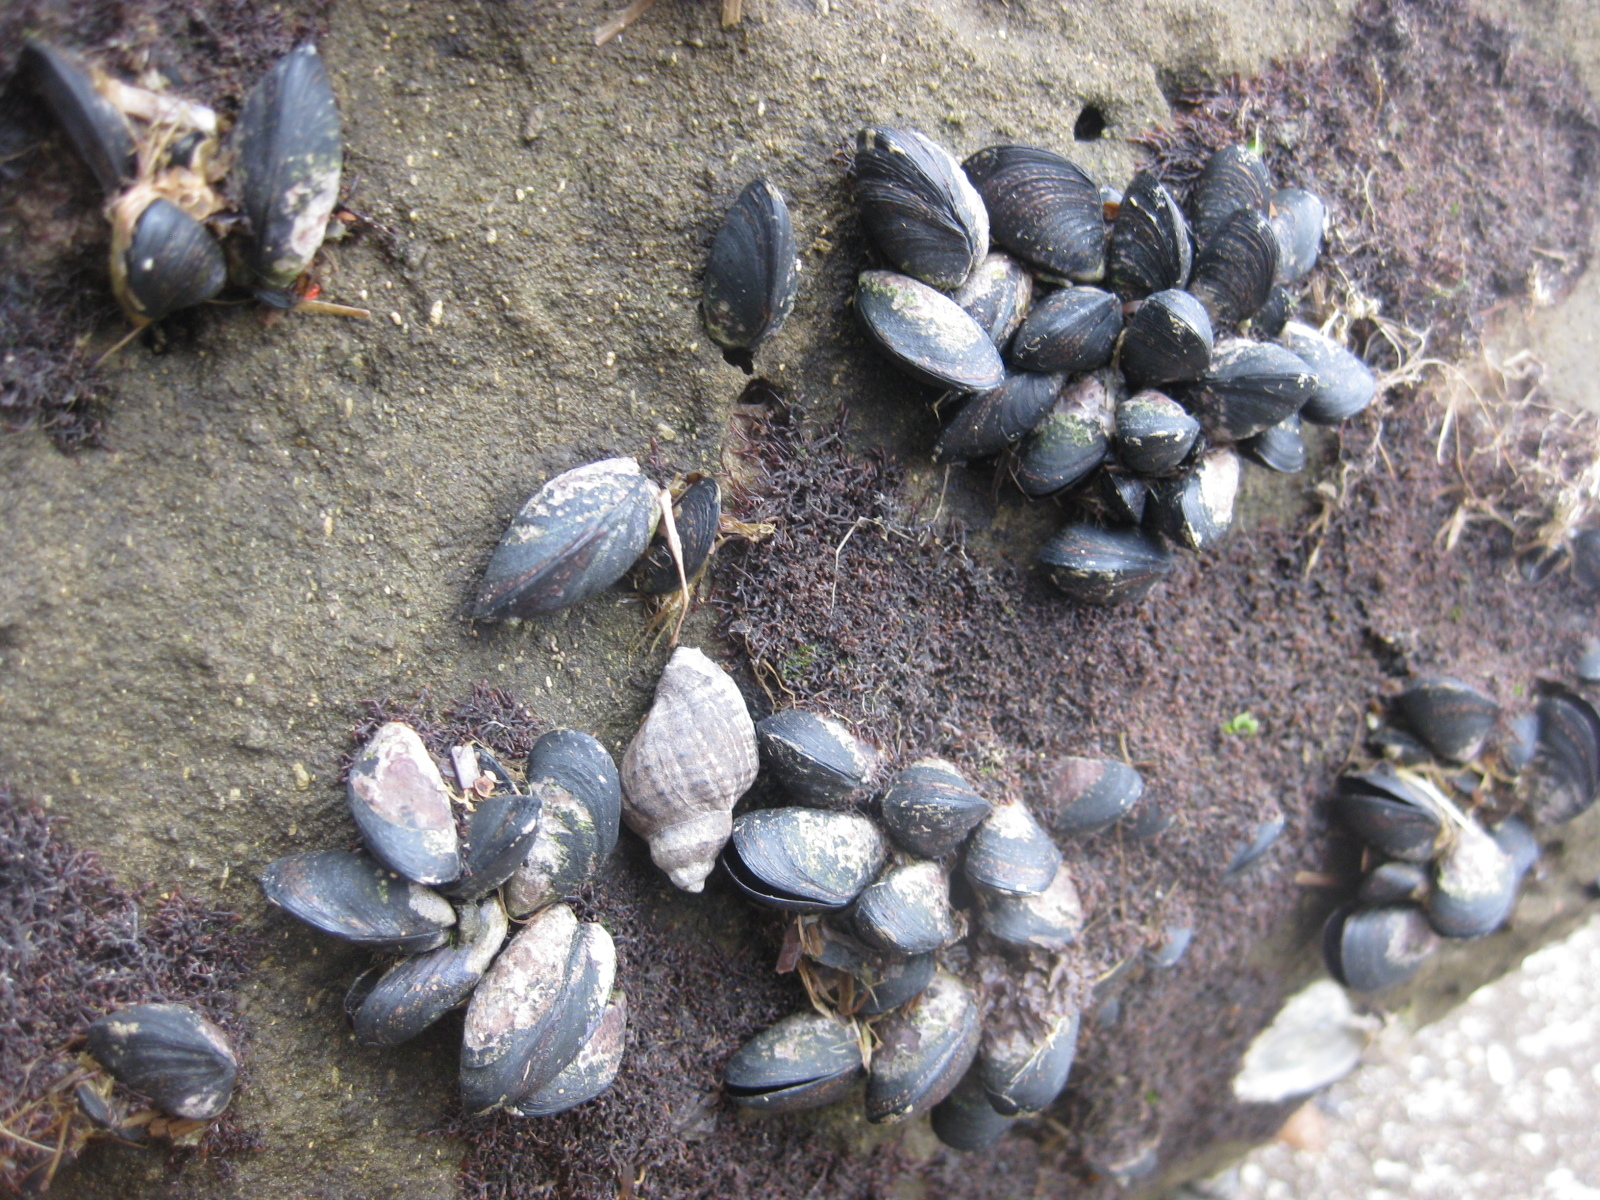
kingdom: Animalia
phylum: Mollusca
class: Bivalvia
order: Mytilida
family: Mytilidae
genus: Xenostrobus
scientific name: Xenostrobus neozelanicus
